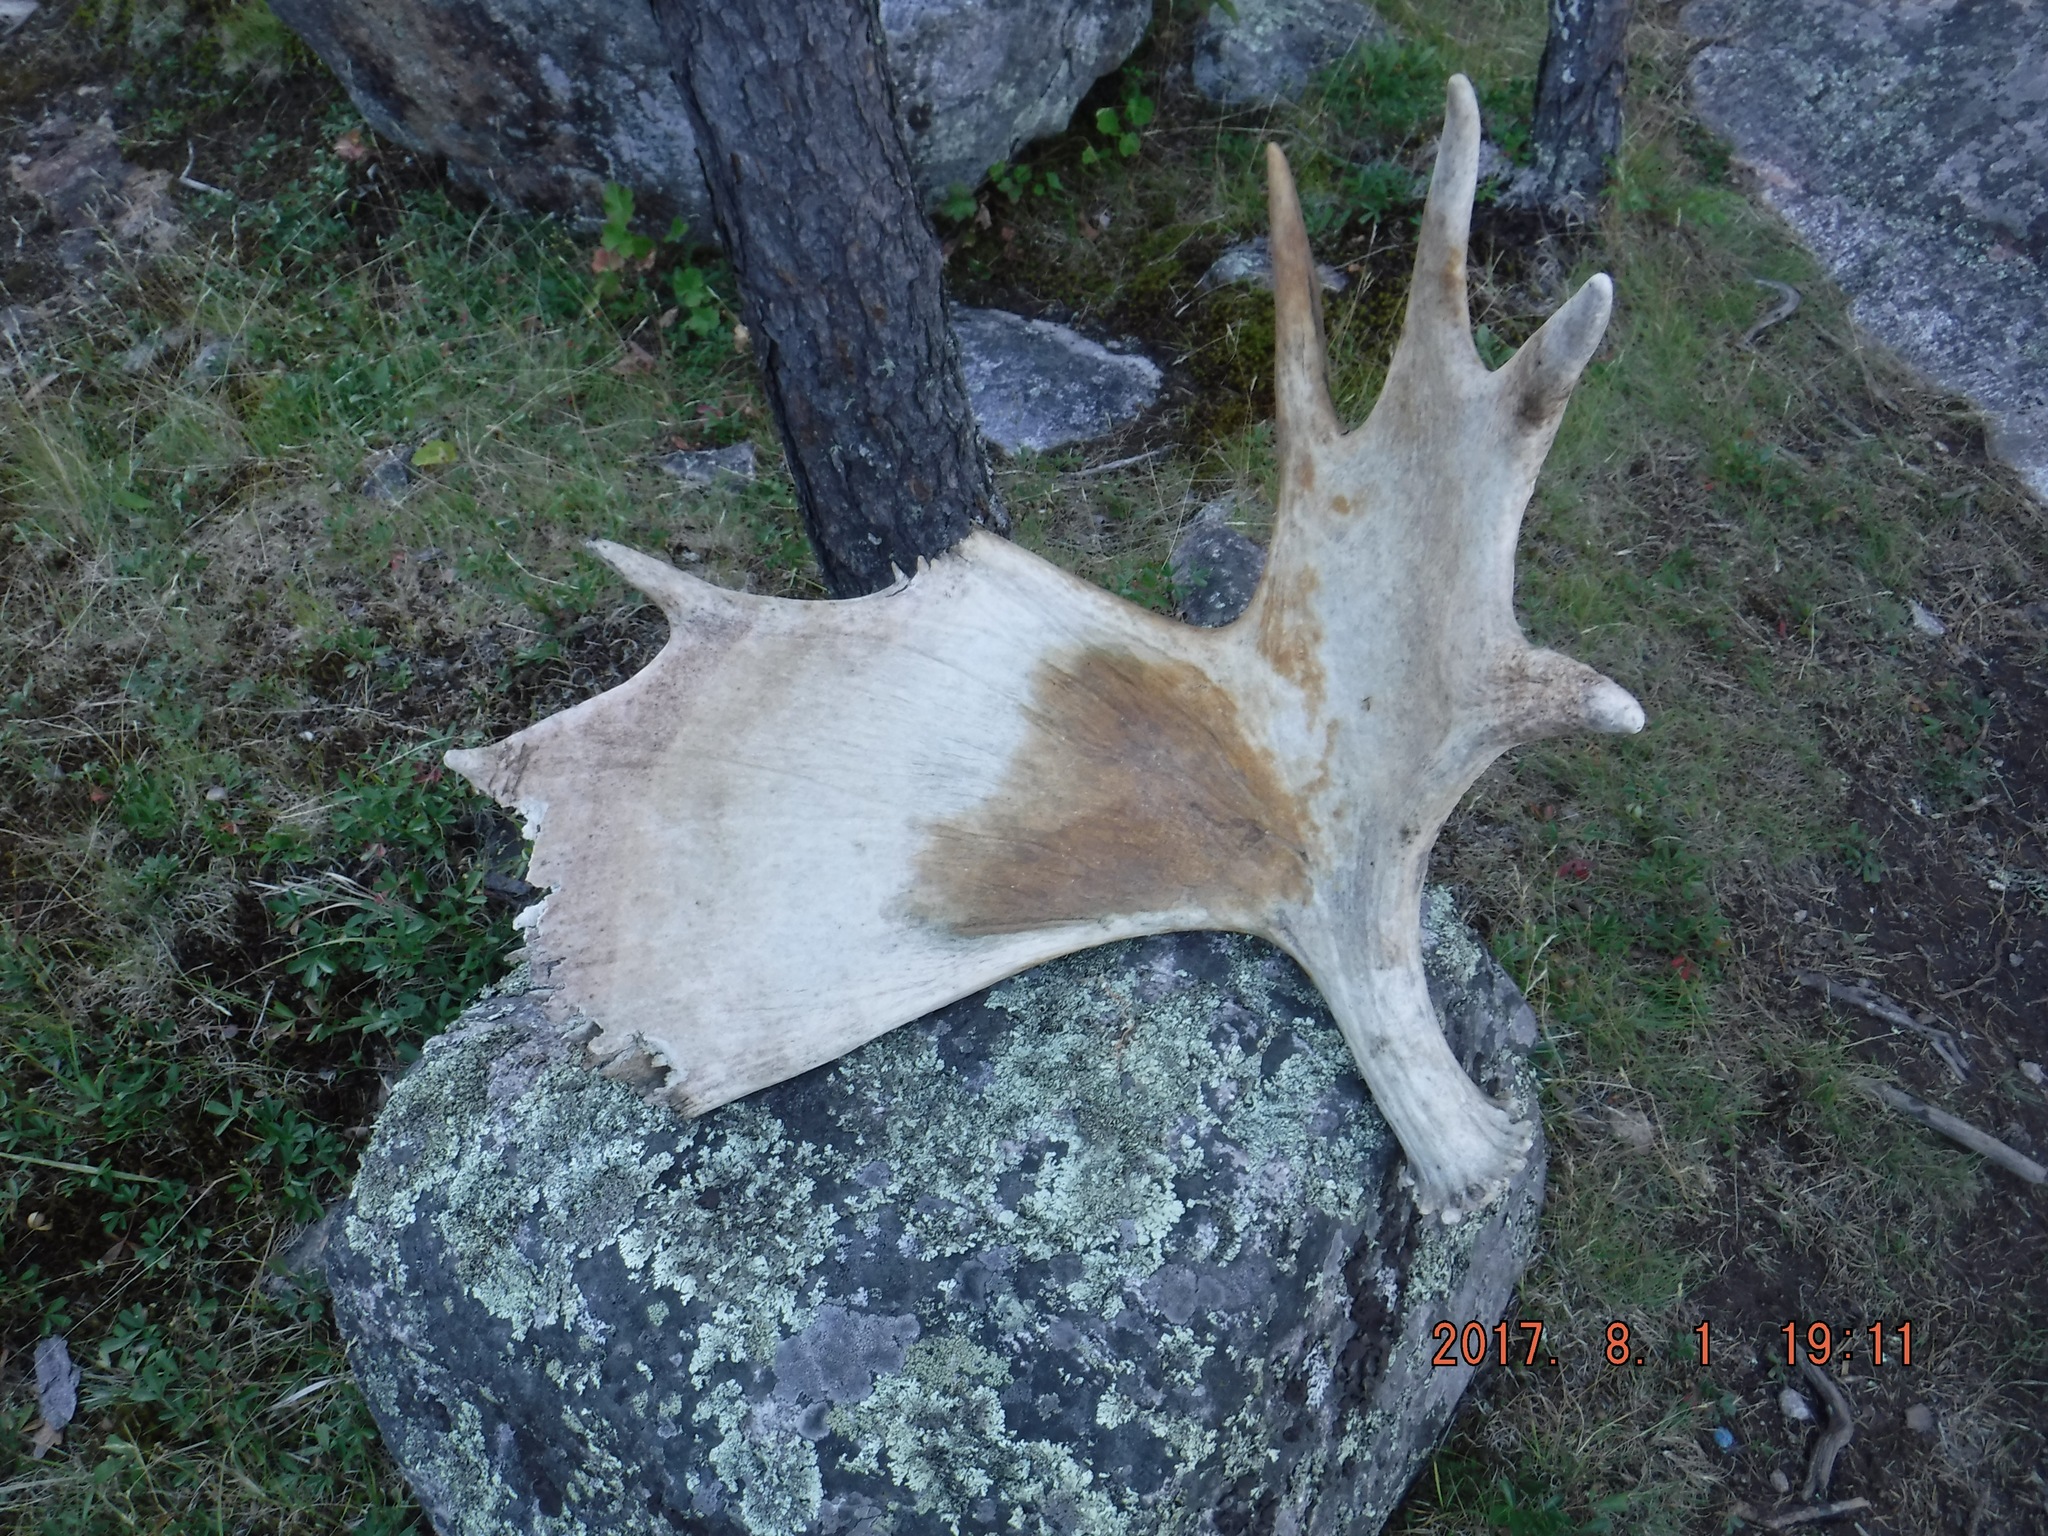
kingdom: Animalia
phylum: Chordata
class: Mammalia
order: Artiodactyla
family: Cervidae
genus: Alces
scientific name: Alces alces
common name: Moose
